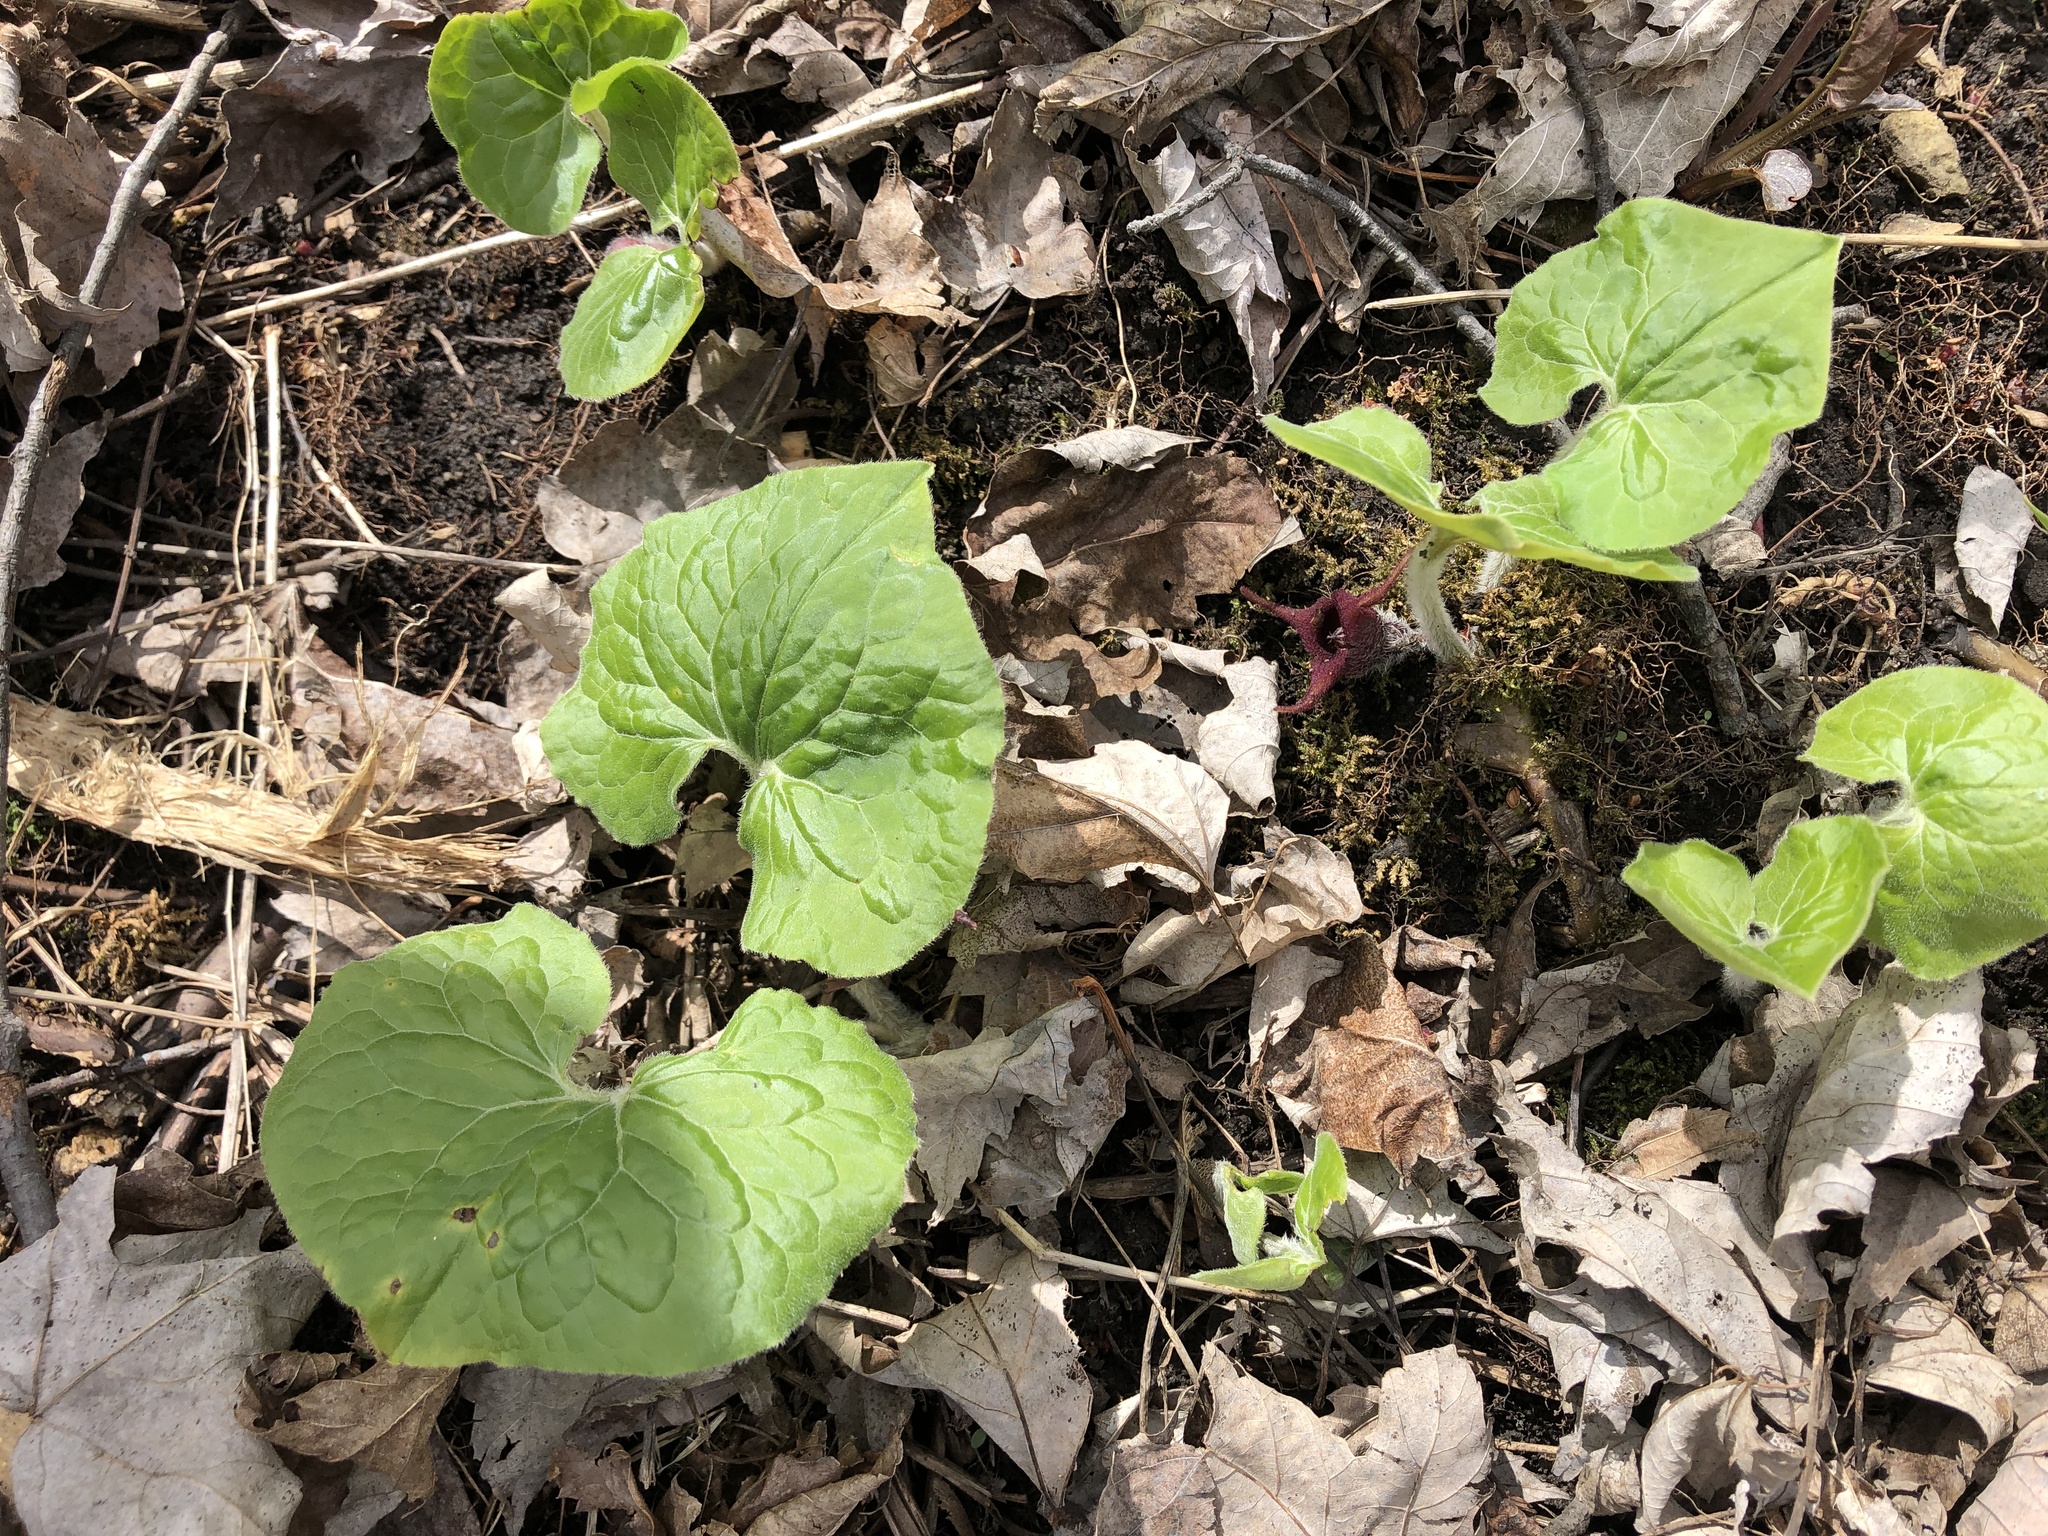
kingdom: Plantae
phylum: Tracheophyta
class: Magnoliopsida
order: Piperales
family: Aristolochiaceae
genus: Asarum
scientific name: Asarum canadense
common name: Wild ginger
